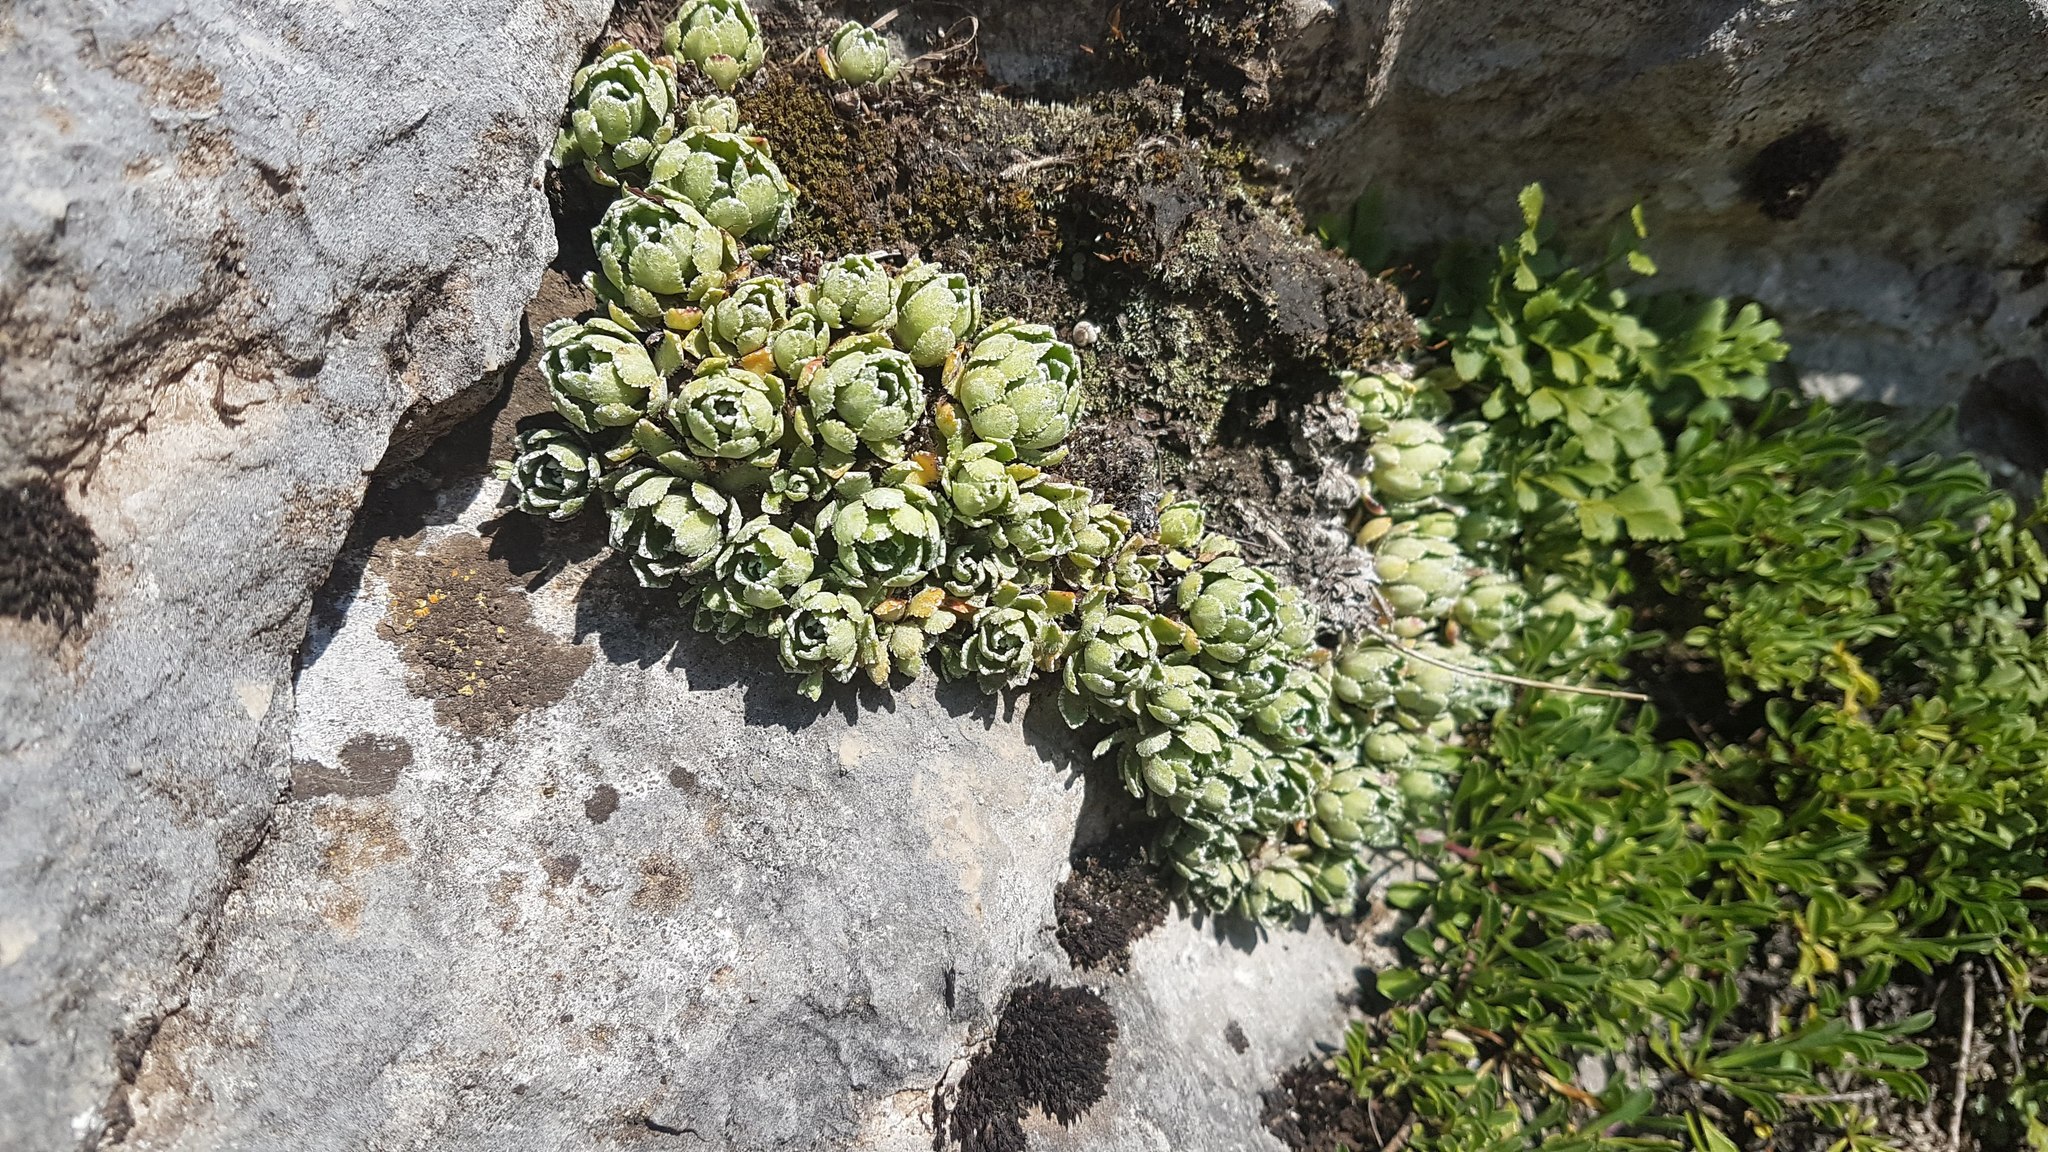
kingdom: Plantae
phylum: Tracheophyta
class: Magnoliopsida
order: Saxifragales
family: Saxifragaceae
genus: Saxifraga
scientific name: Saxifraga paniculata
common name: Livelong saxifrage
